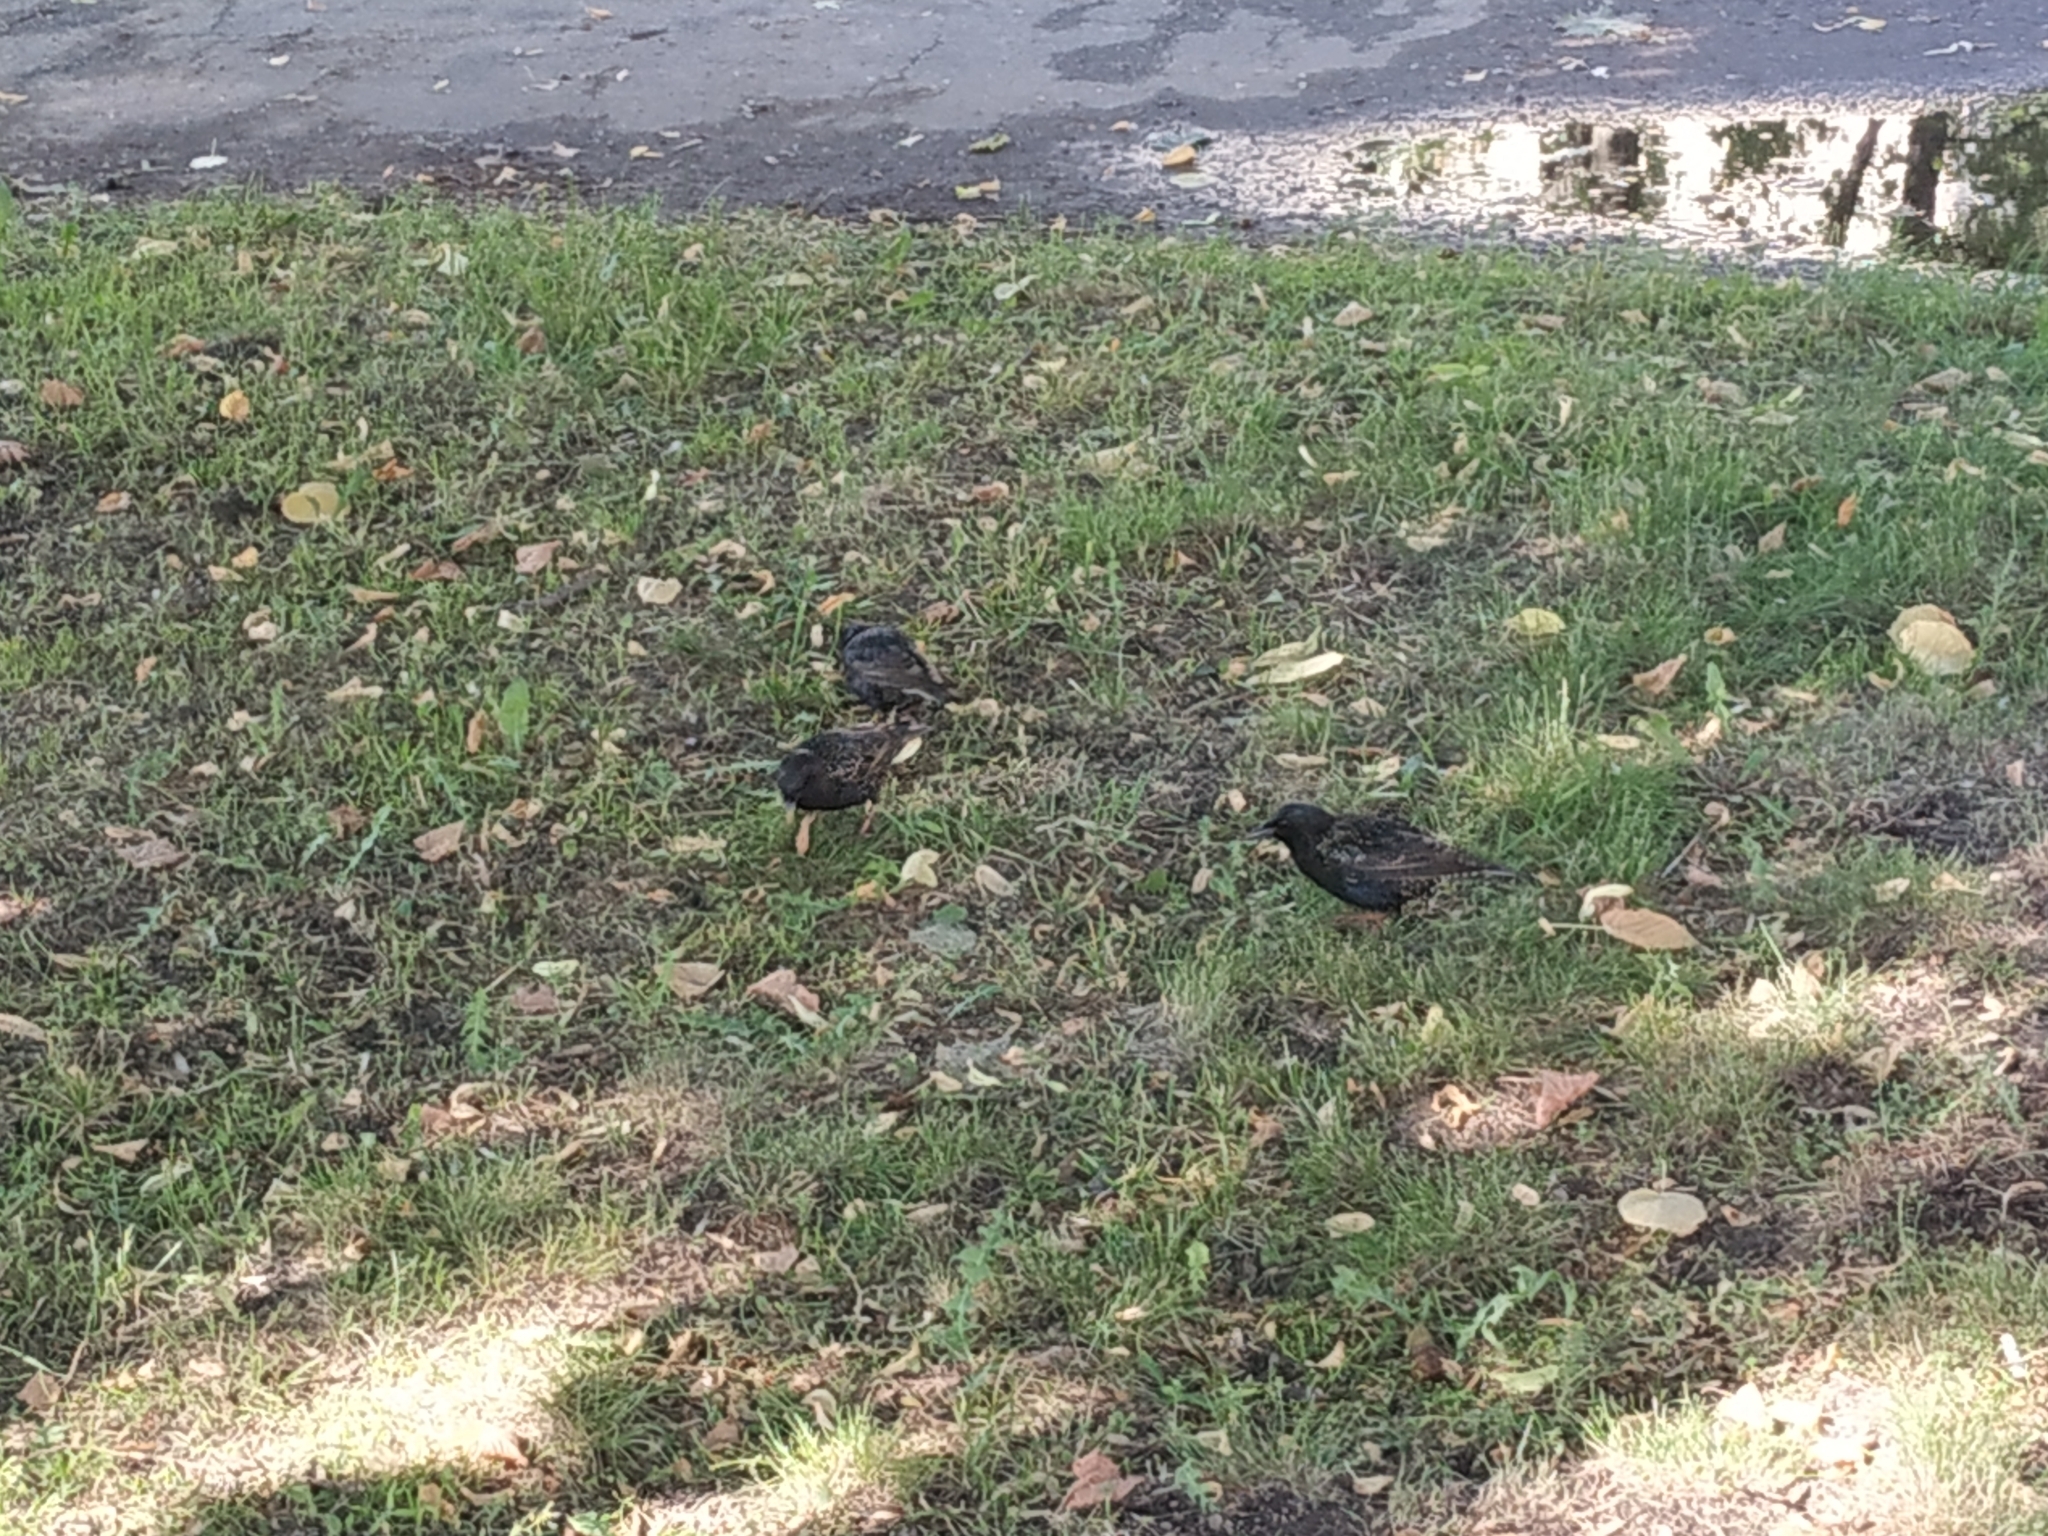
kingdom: Animalia
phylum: Chordata
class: Aves
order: Passeriformes
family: Sturnidae
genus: Sturnus
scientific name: Sturnus vulgaris
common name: Common starling
